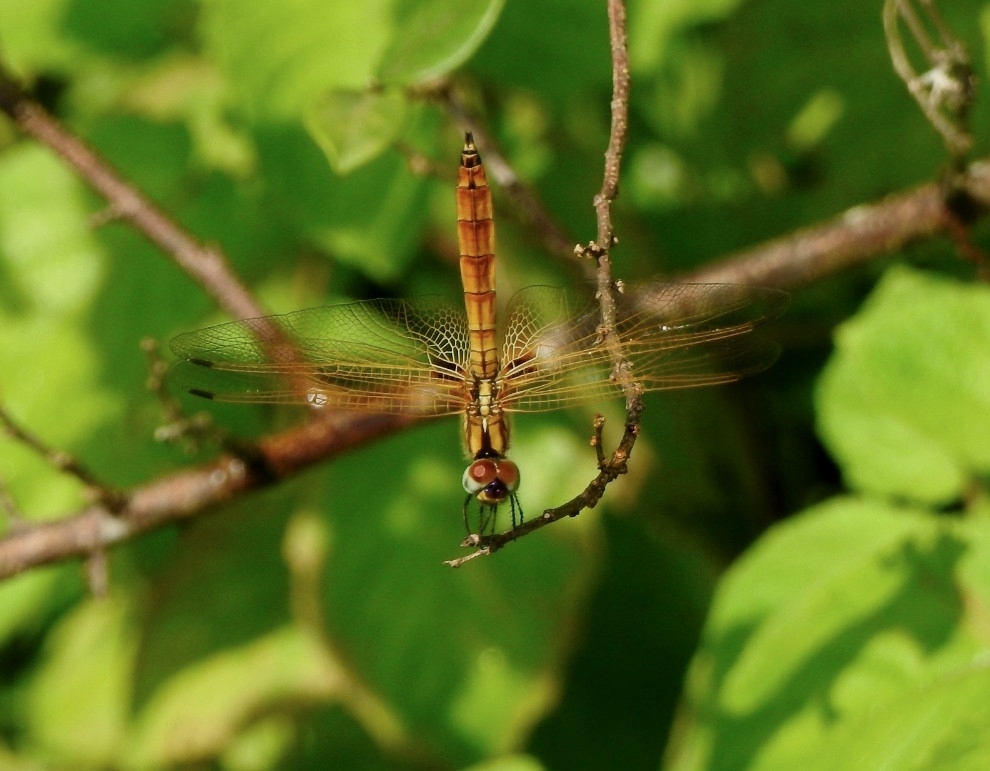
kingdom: Animalia
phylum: Arthropoda
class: Insecta
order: Odonata
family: Libellulidae
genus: Trithemis
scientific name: Trithemis aurora
